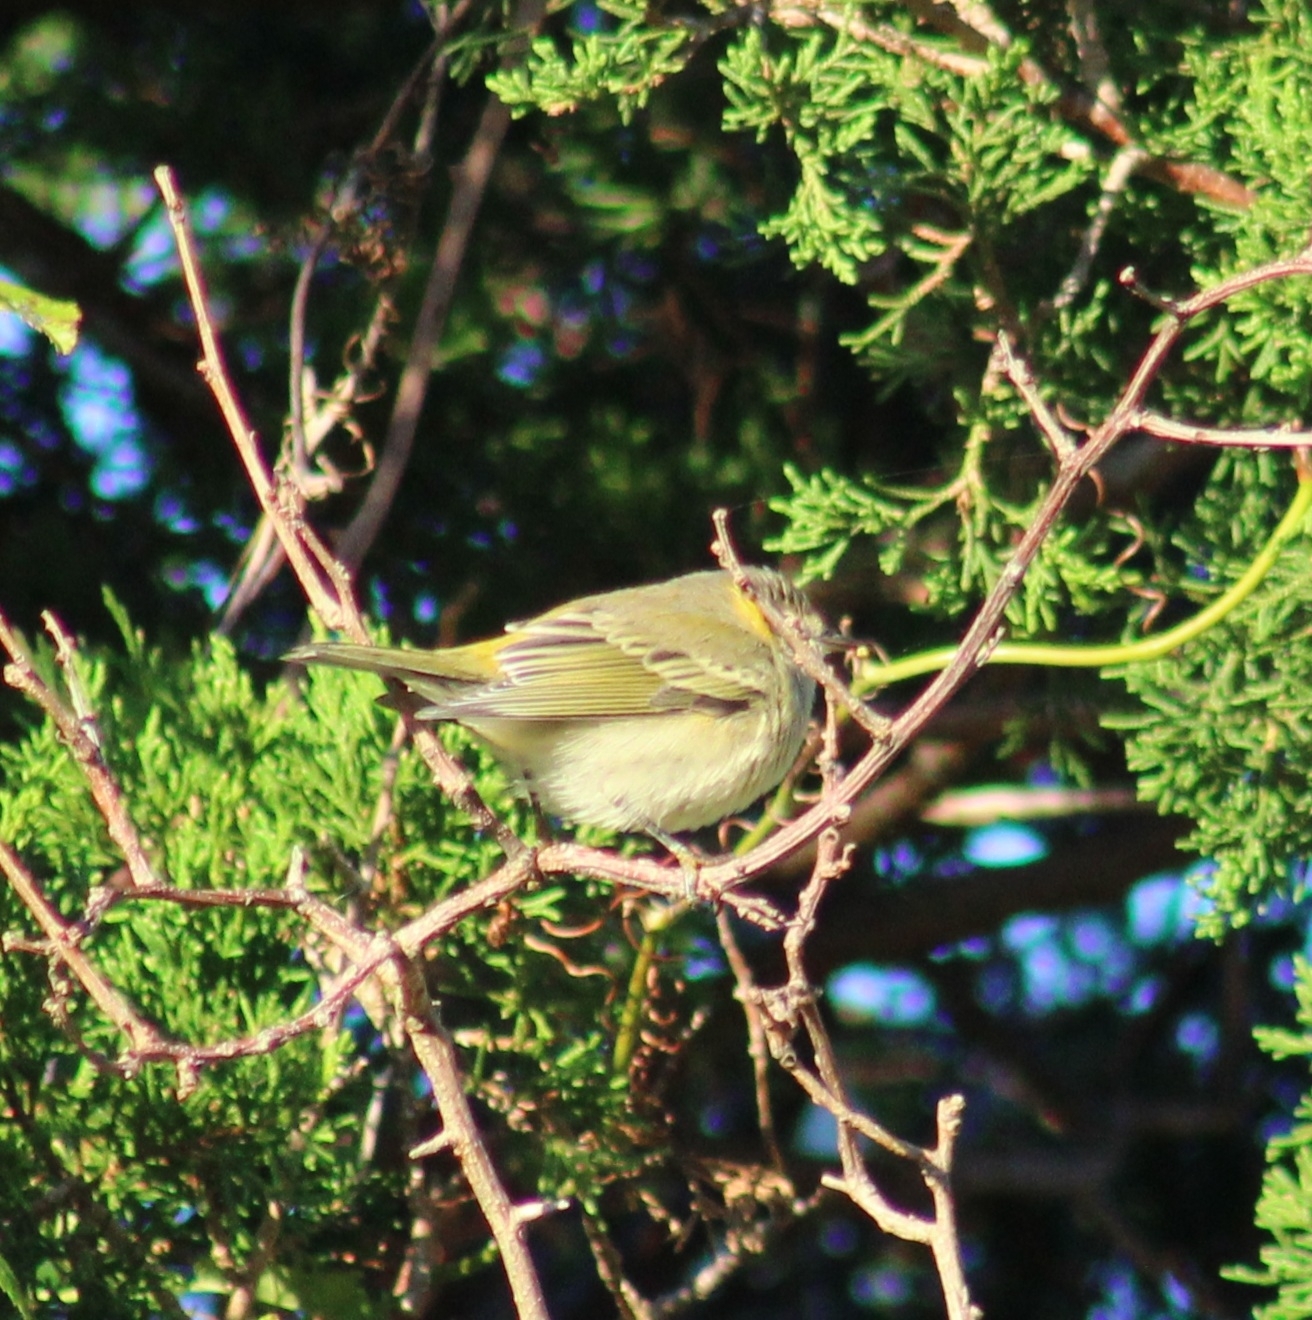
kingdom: Animalia
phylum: Chordata
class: Aves
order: Passeriformes
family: Parulidae
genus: Setophaga
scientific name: Setophaga tigrina
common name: Cape may warbler
